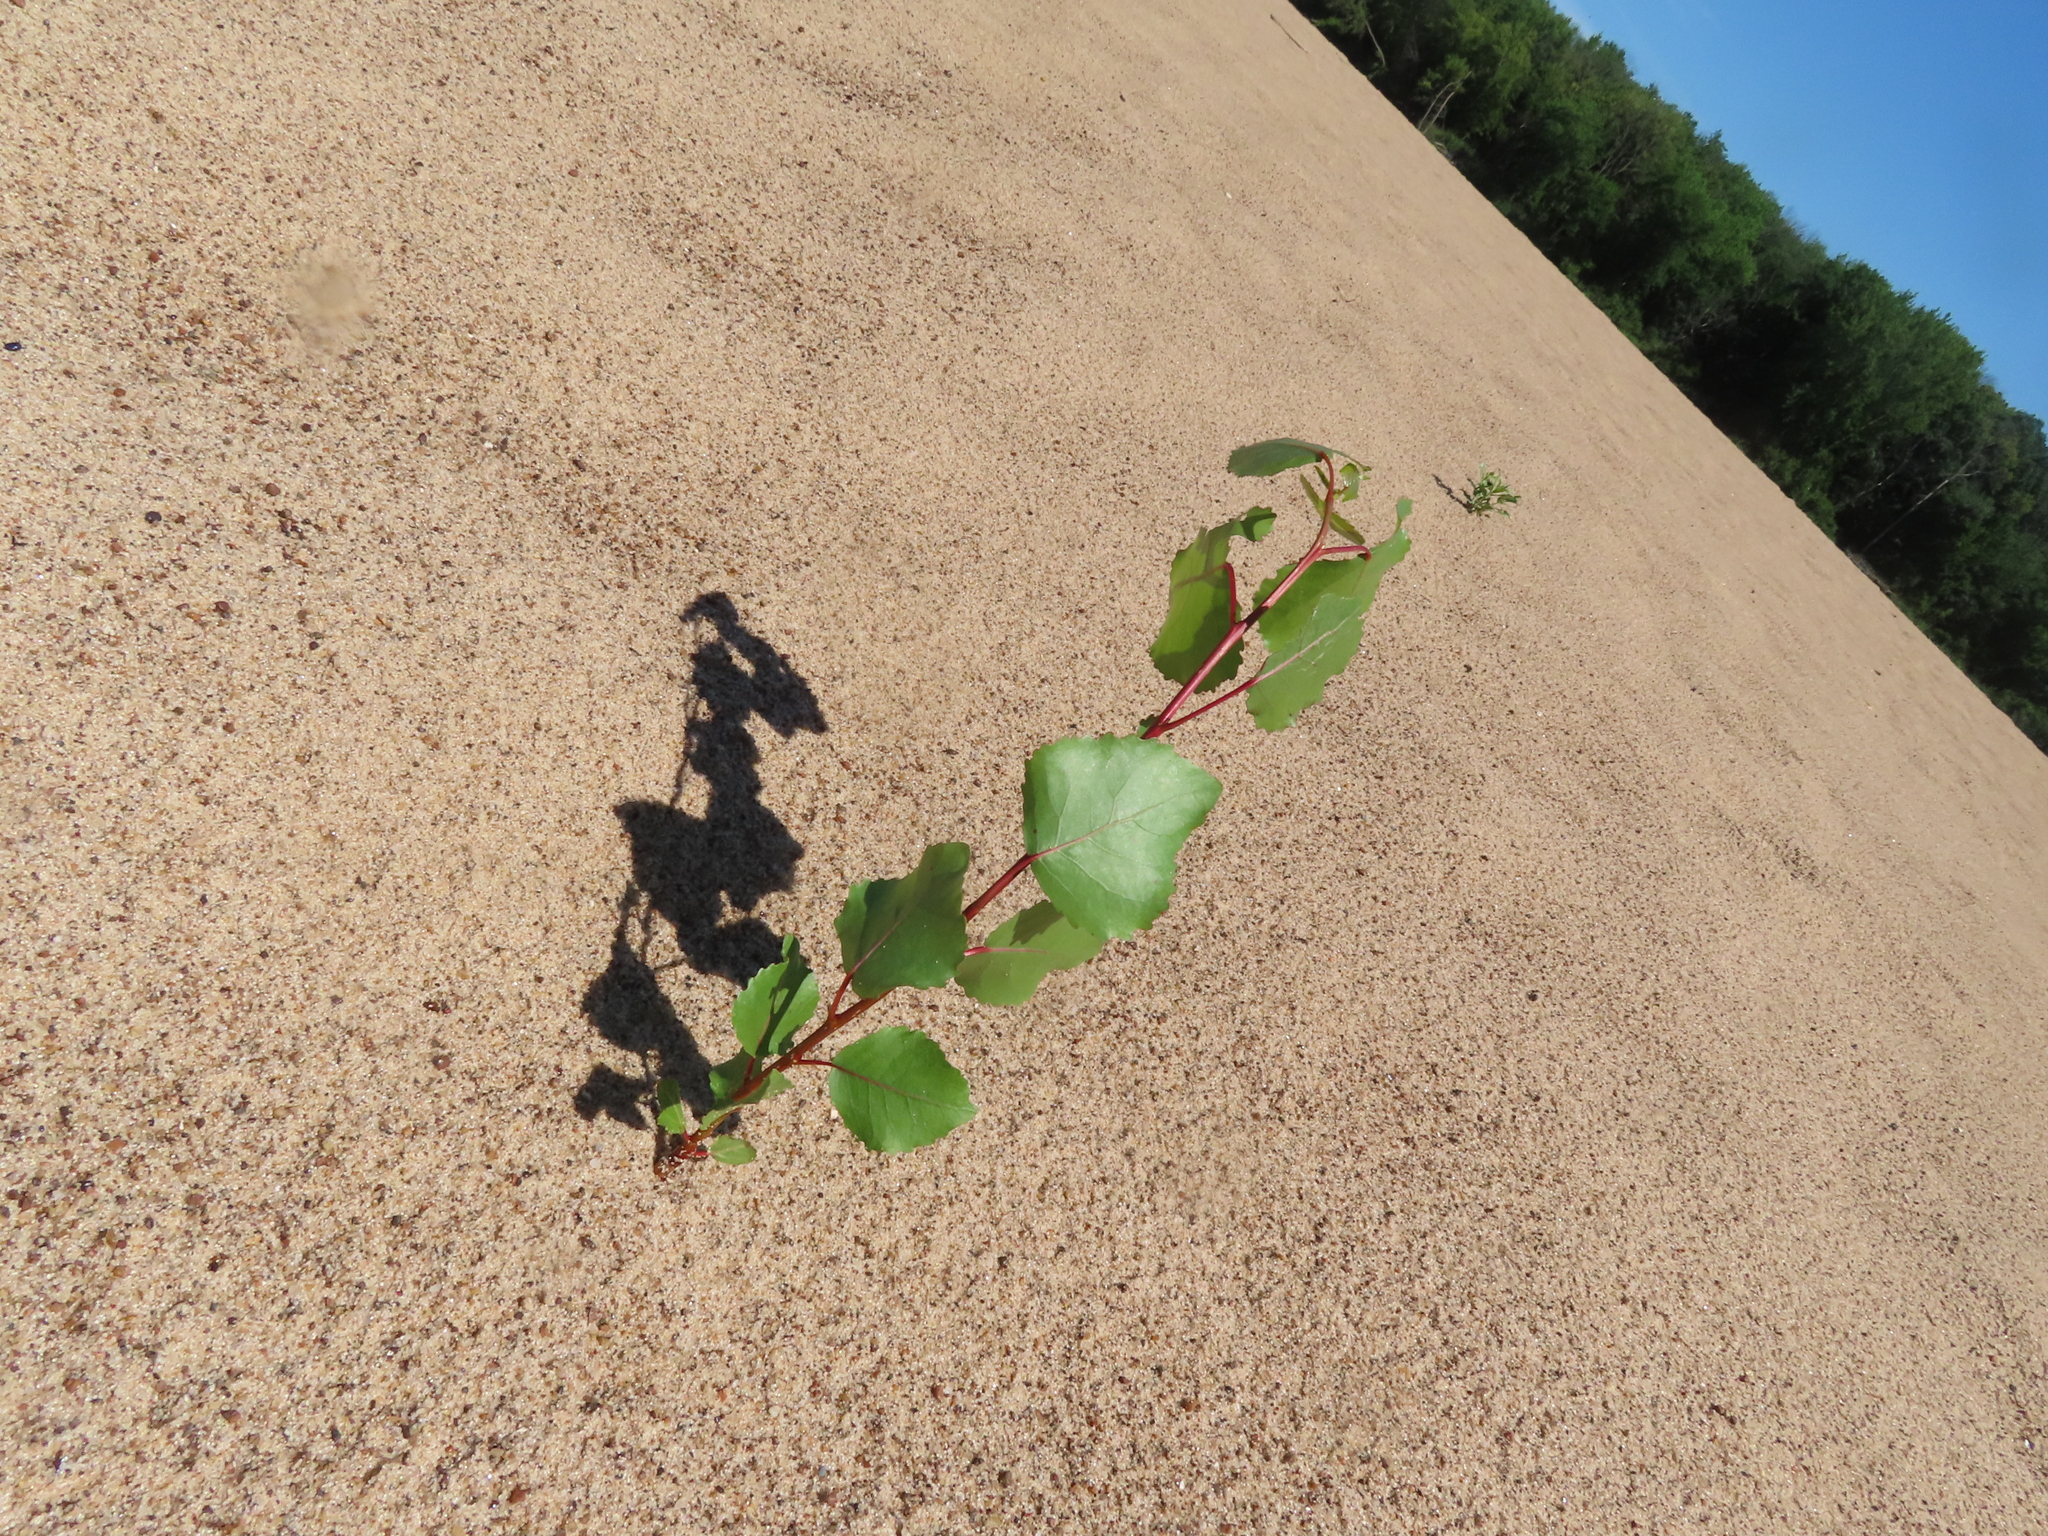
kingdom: Plantae
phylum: Tracheophyta
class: Magnoliopsida
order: Malpighiales
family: Salicaceae
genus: Populus
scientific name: Populus deltoides
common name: Eastern cottonwood
